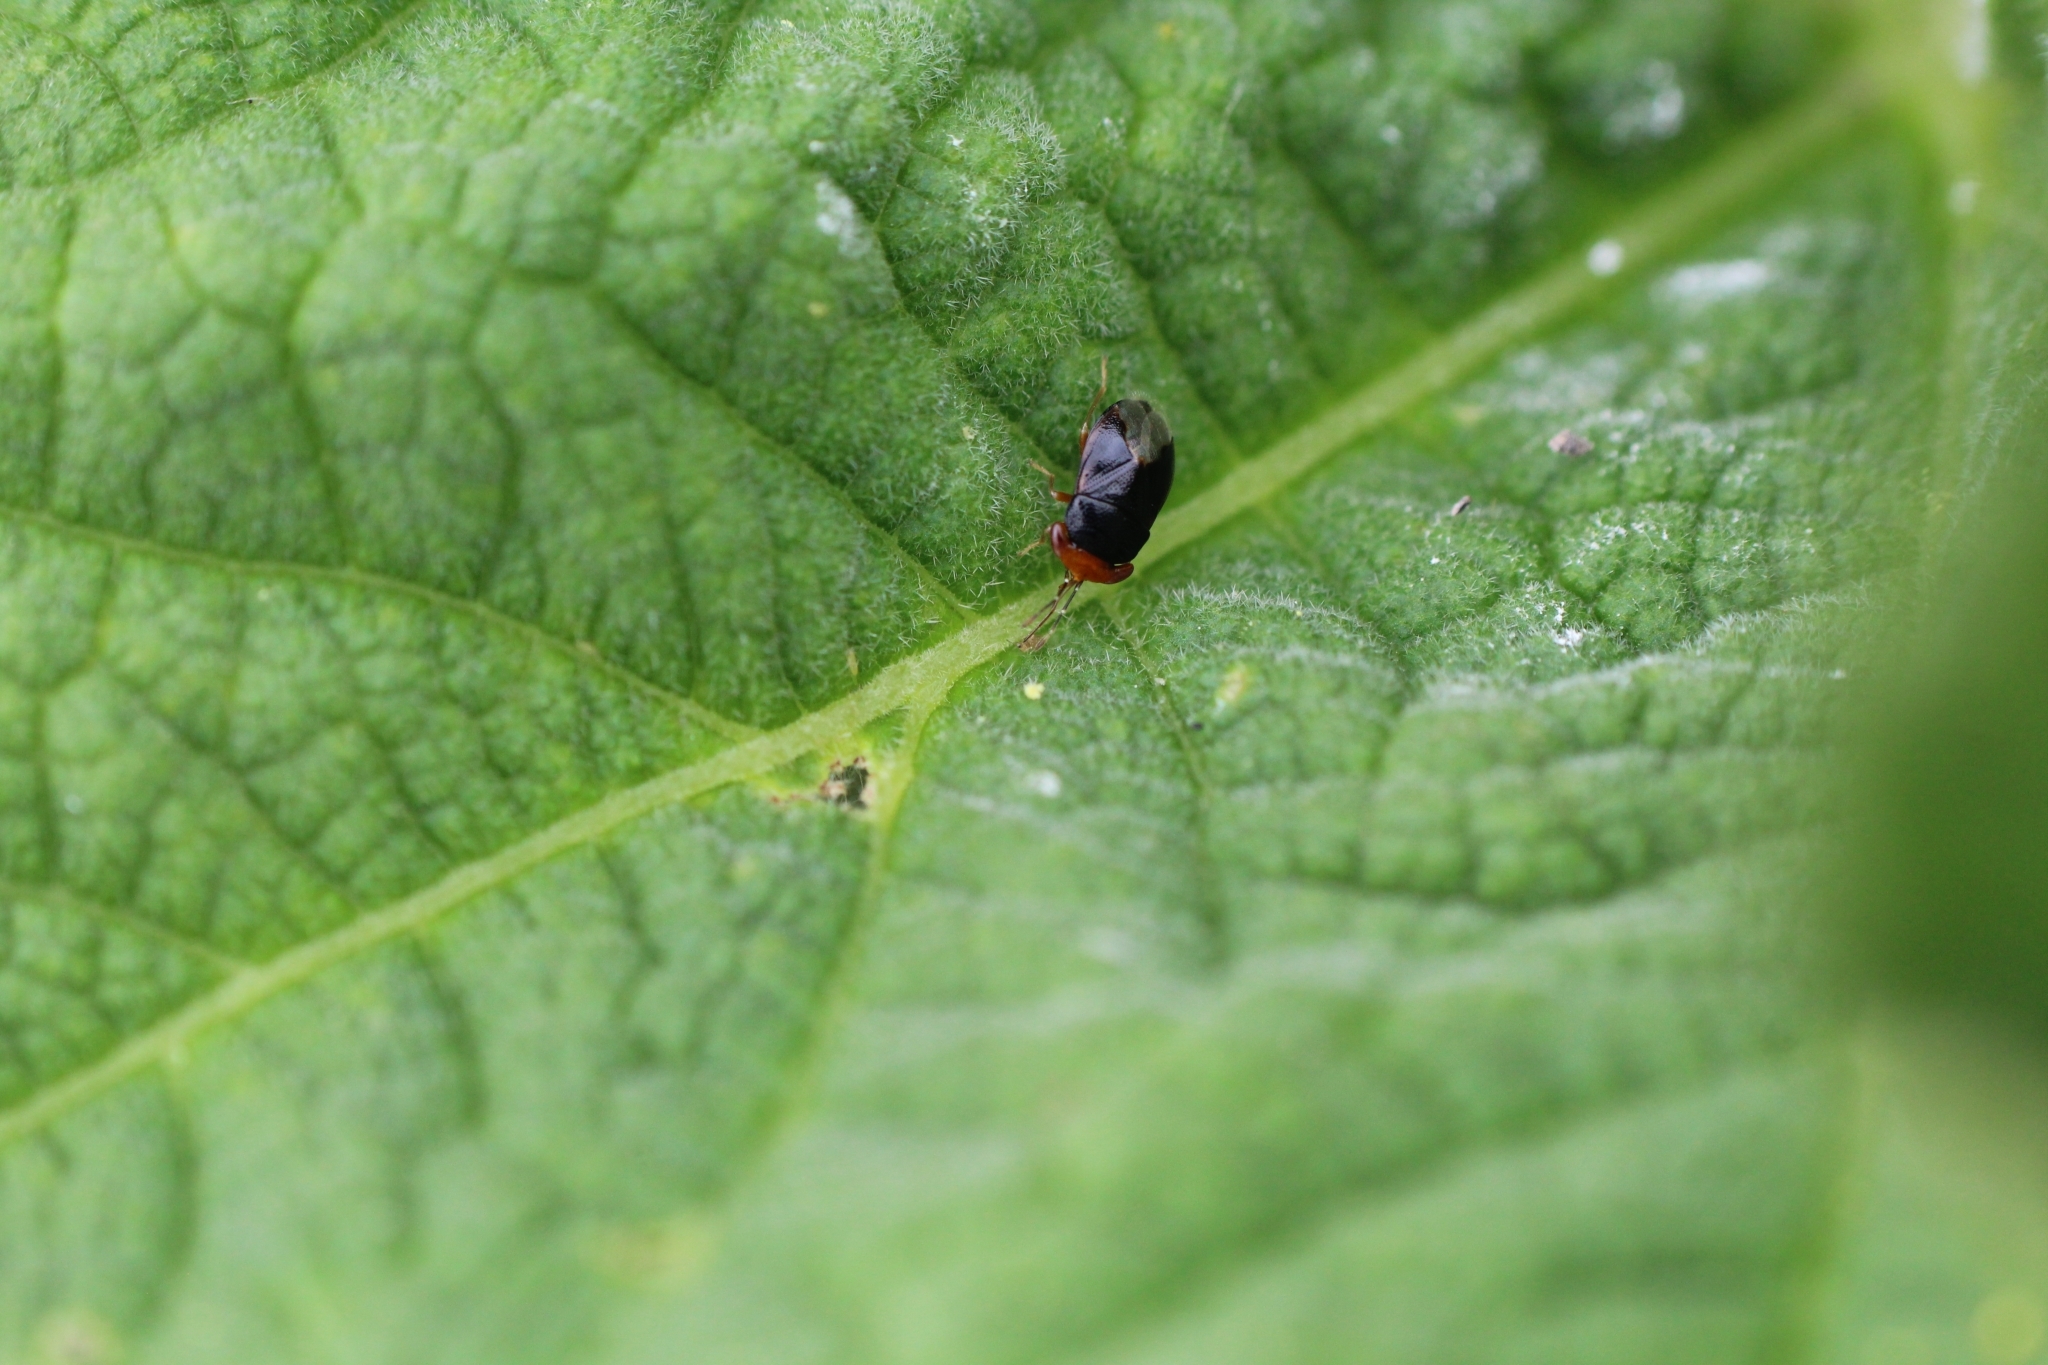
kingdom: Animalia
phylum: Arthropoda
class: Insecta
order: Hemiptera
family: Geocoridae
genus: Geocoris
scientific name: Geocoris erythrocephala
